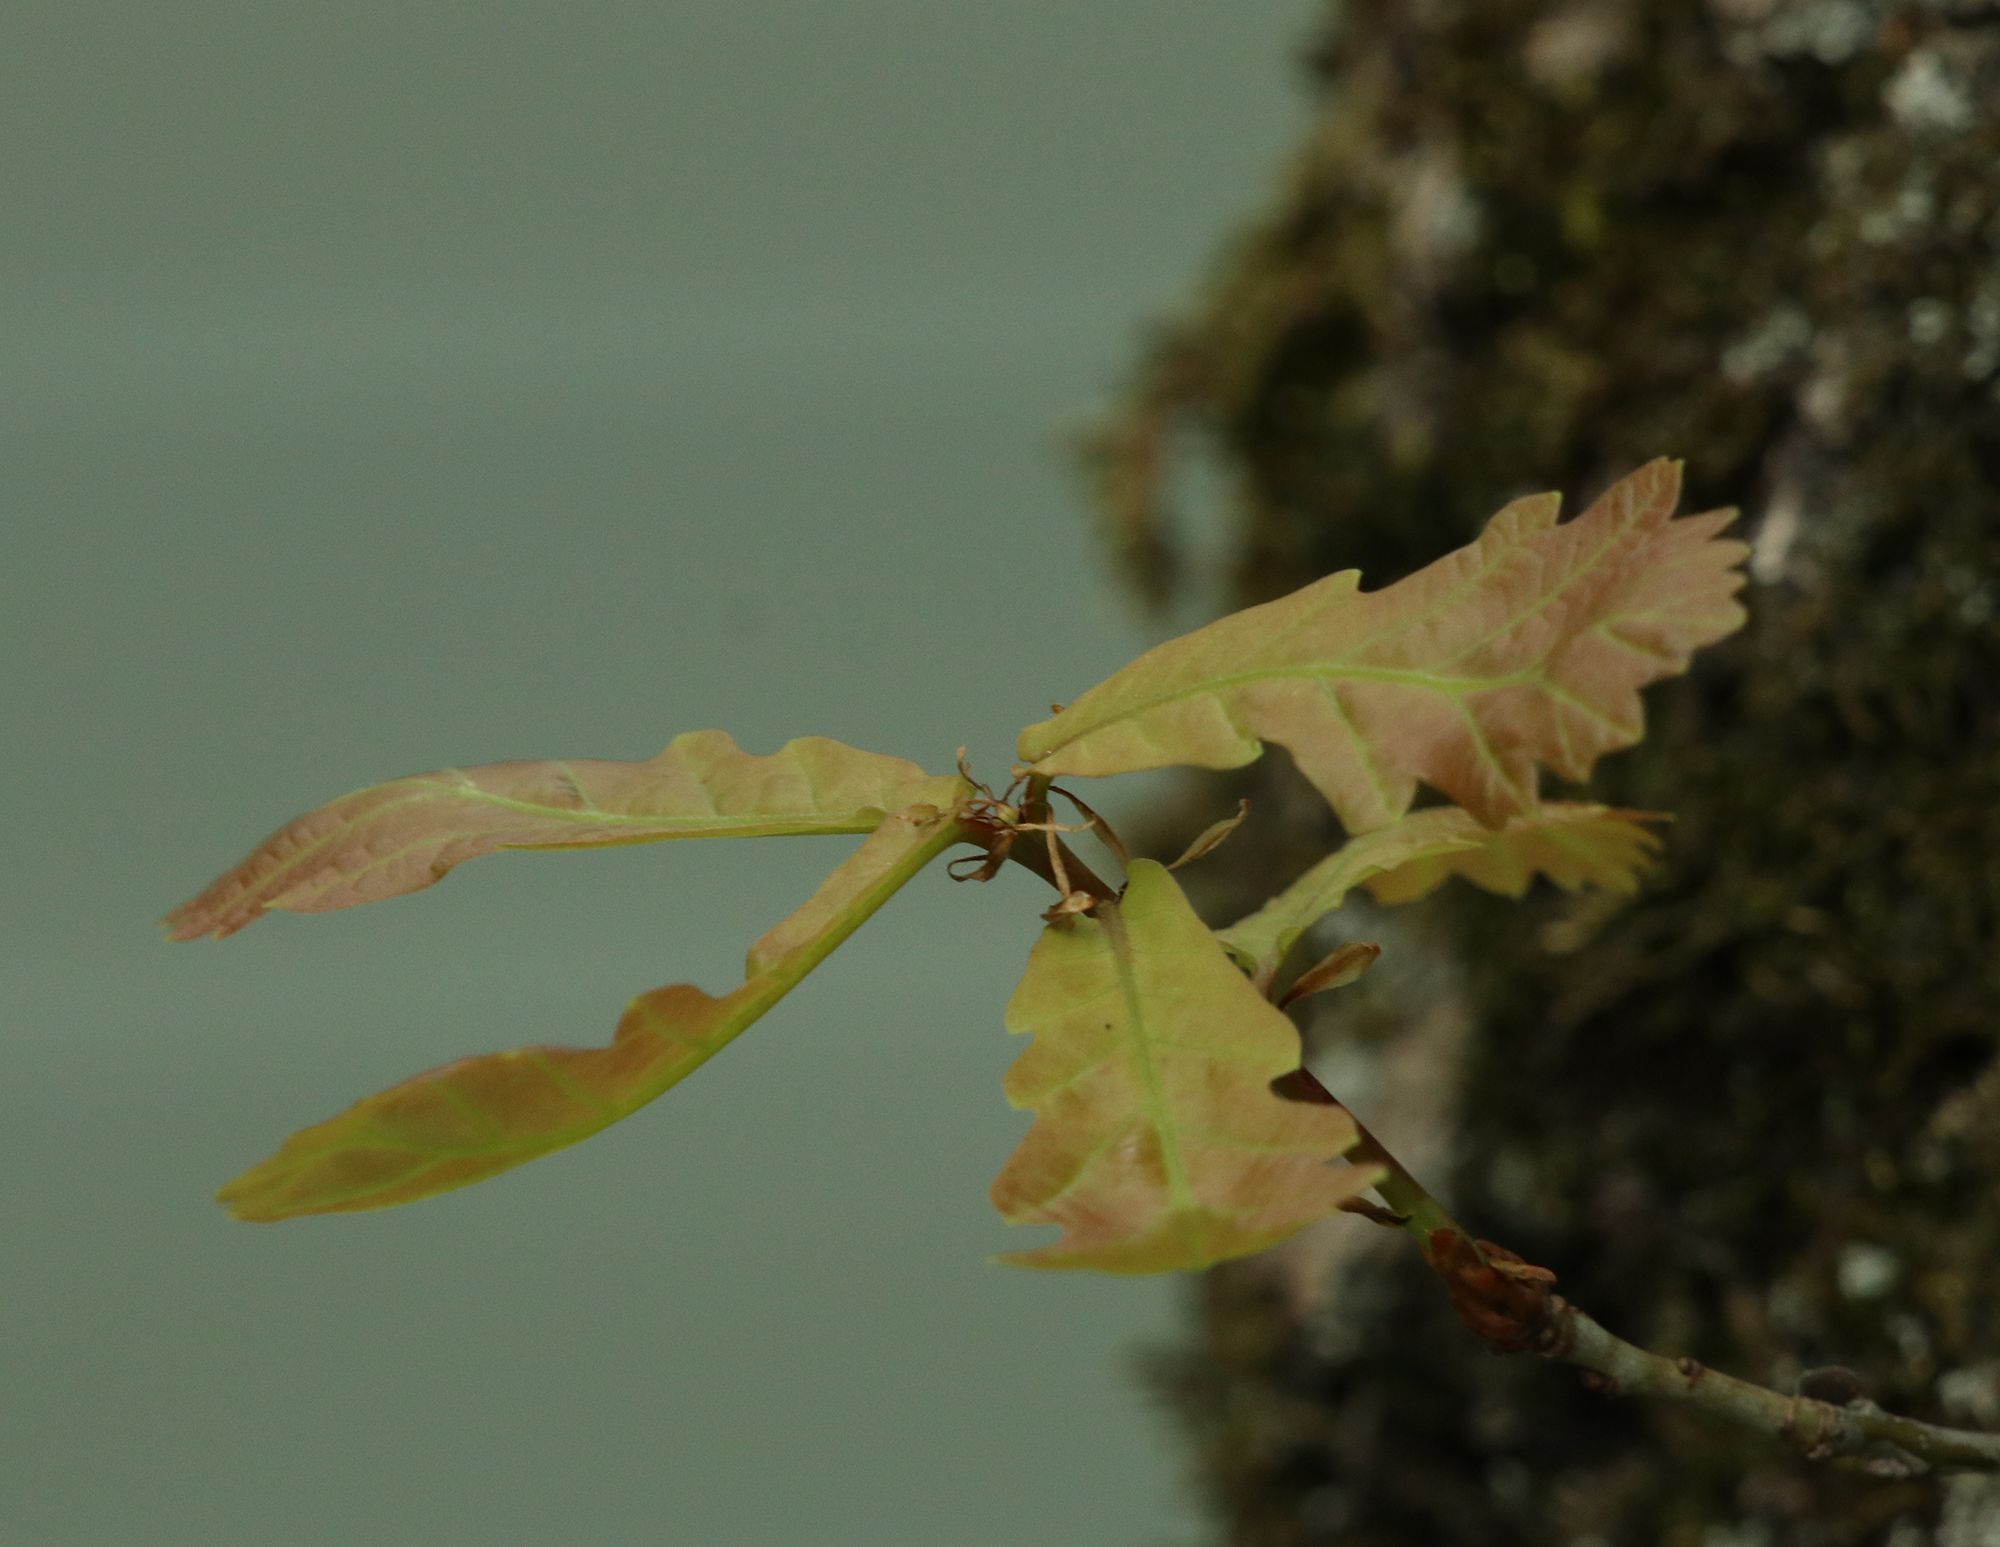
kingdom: Plantae
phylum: Tracheophyta
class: Magnoliopsida
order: Fagales
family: Fagaceae
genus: Quercus
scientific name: Quercus robur
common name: Pedunculate oak
